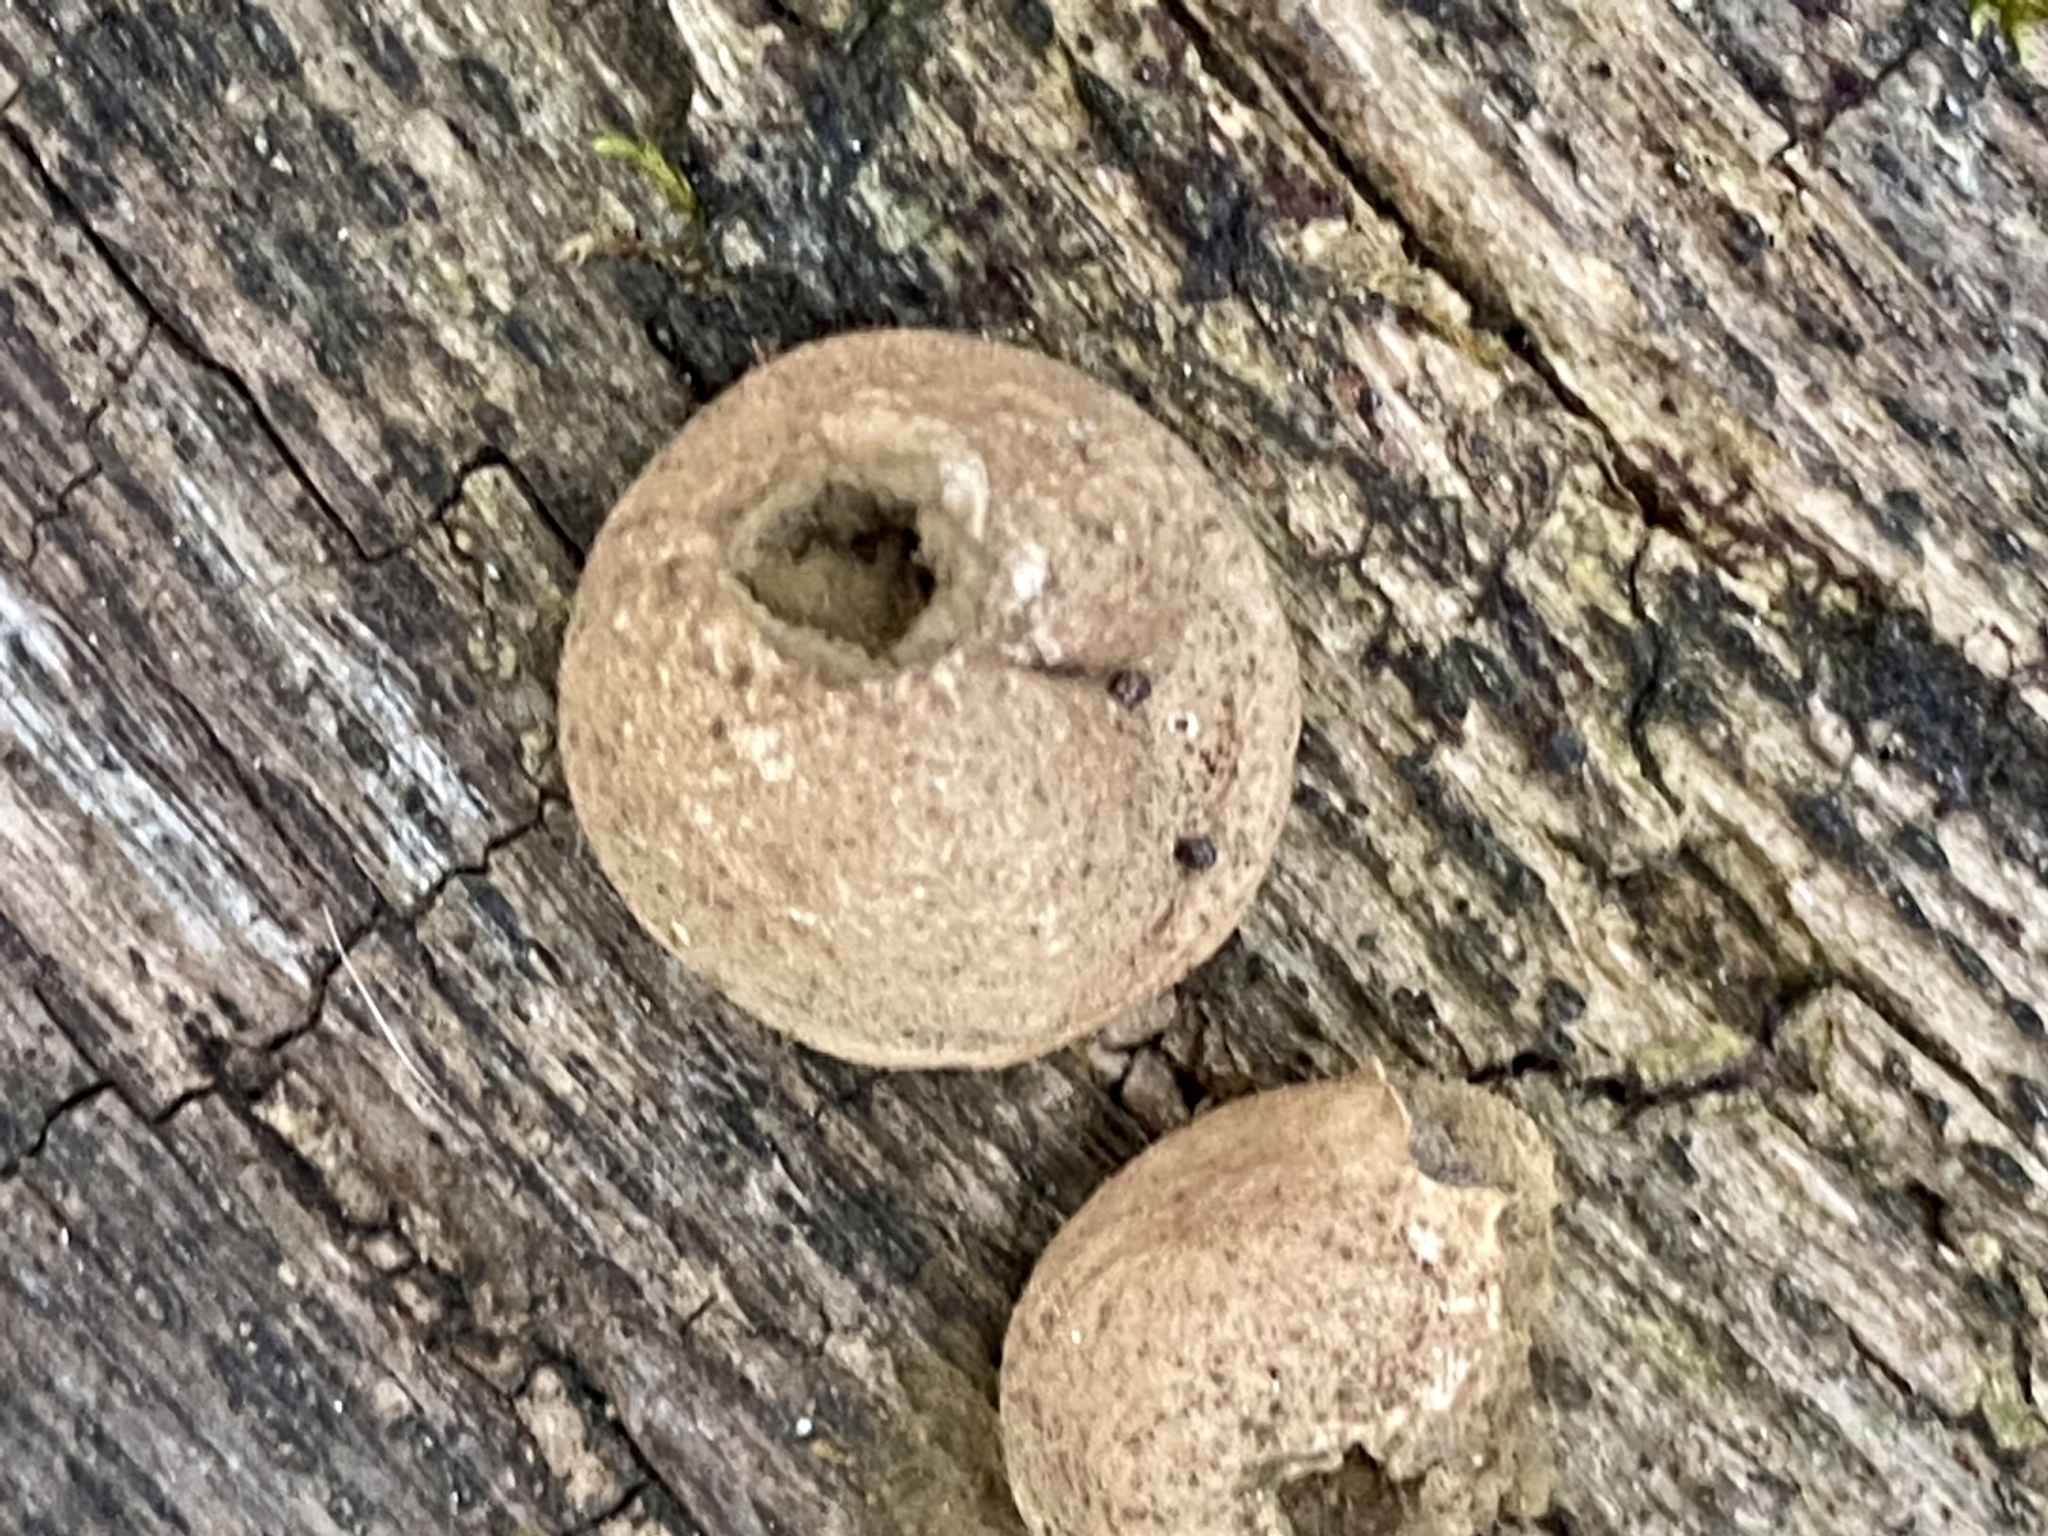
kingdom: Fungi
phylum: Basidiomycota
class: Agaricomycetes
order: Agaricales
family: Lycoperdaceae
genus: Apioperdon
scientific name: Apioperdon pyriforme
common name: Pear-shaped puffball
